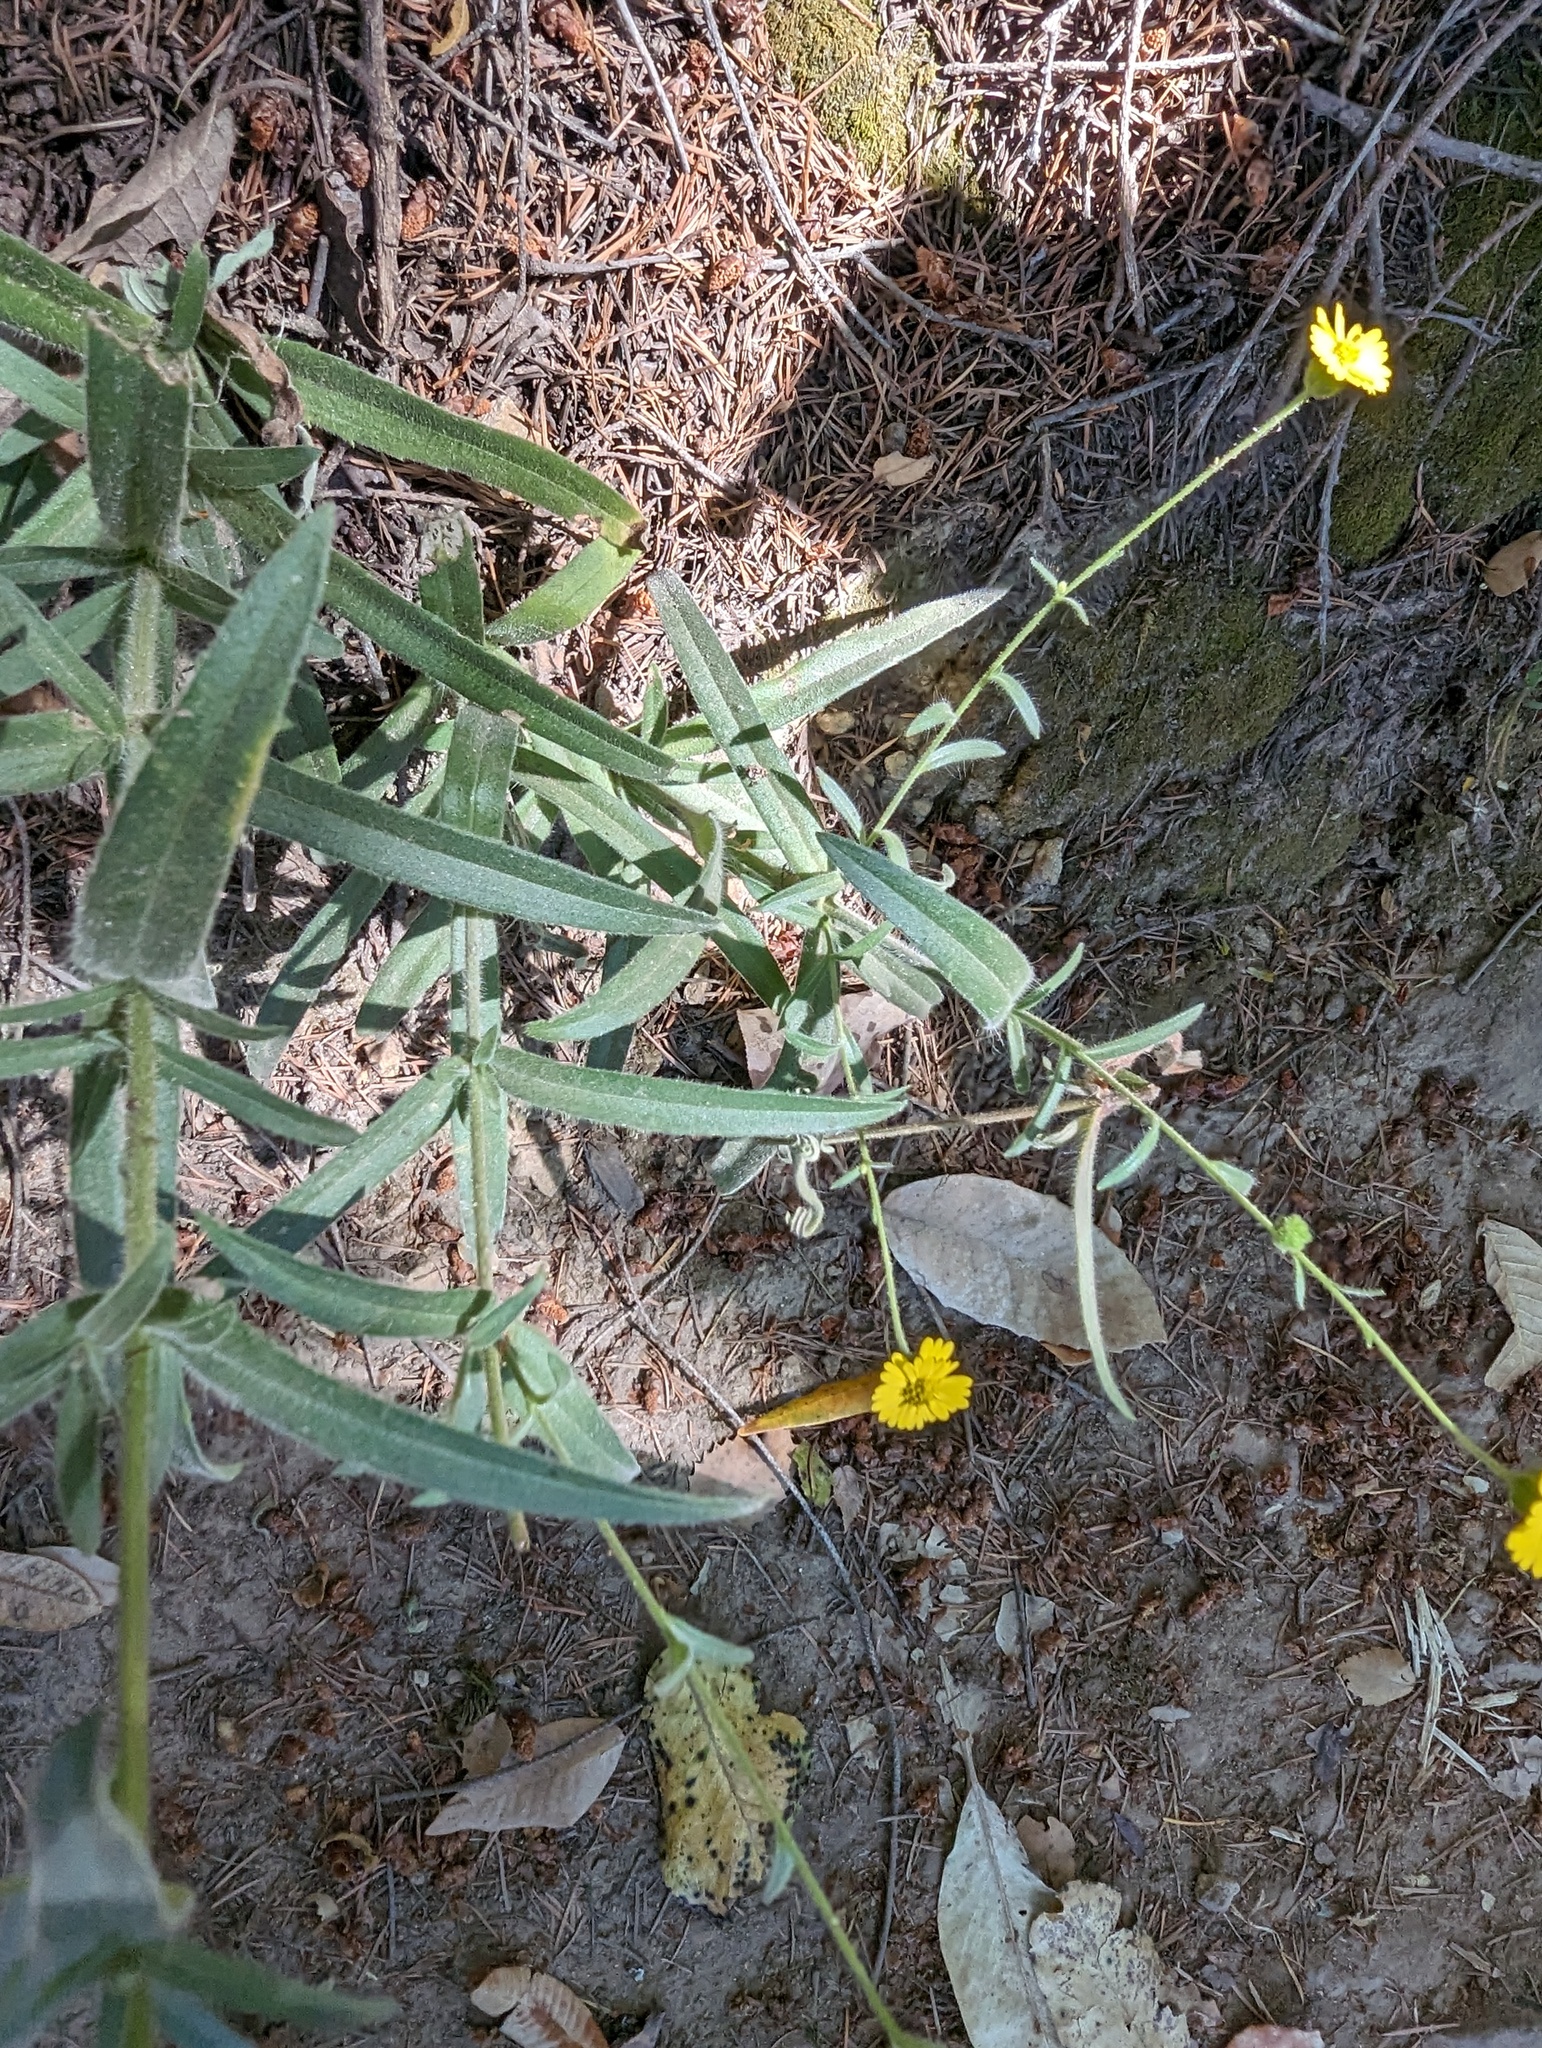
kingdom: Plantae
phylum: Tracheophyta
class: Magnoliopsida
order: Asterales
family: Asteraceae
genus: Anisocarpus
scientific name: Anisocarpus madioides
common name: Woodland madia
